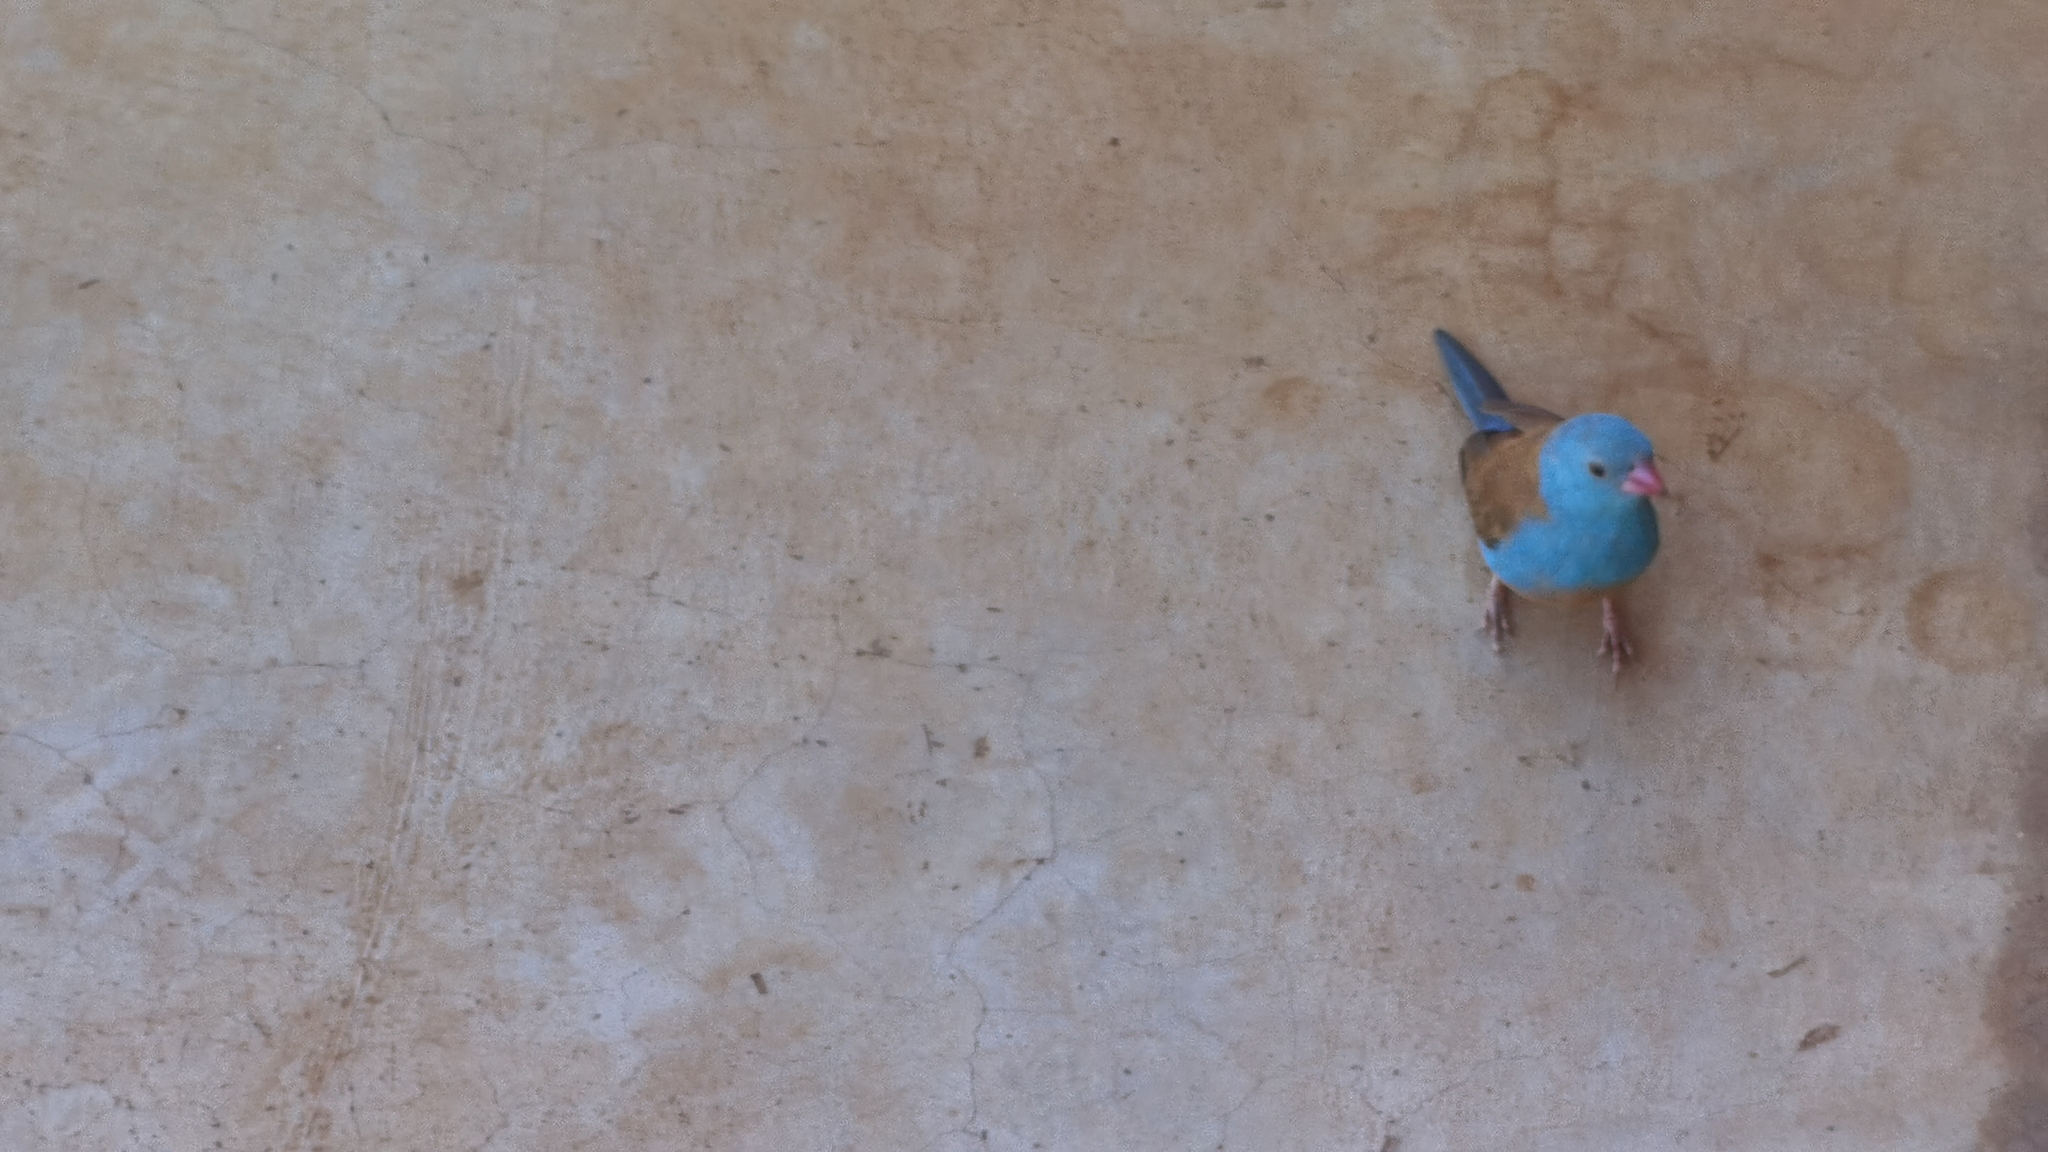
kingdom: Animalia
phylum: Chordata
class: Aves
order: Passeriformes
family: Estrildidae
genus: Uraeginthus
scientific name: Uraeginthus cyanocephalus
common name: Blue-capped cordon-bleu
